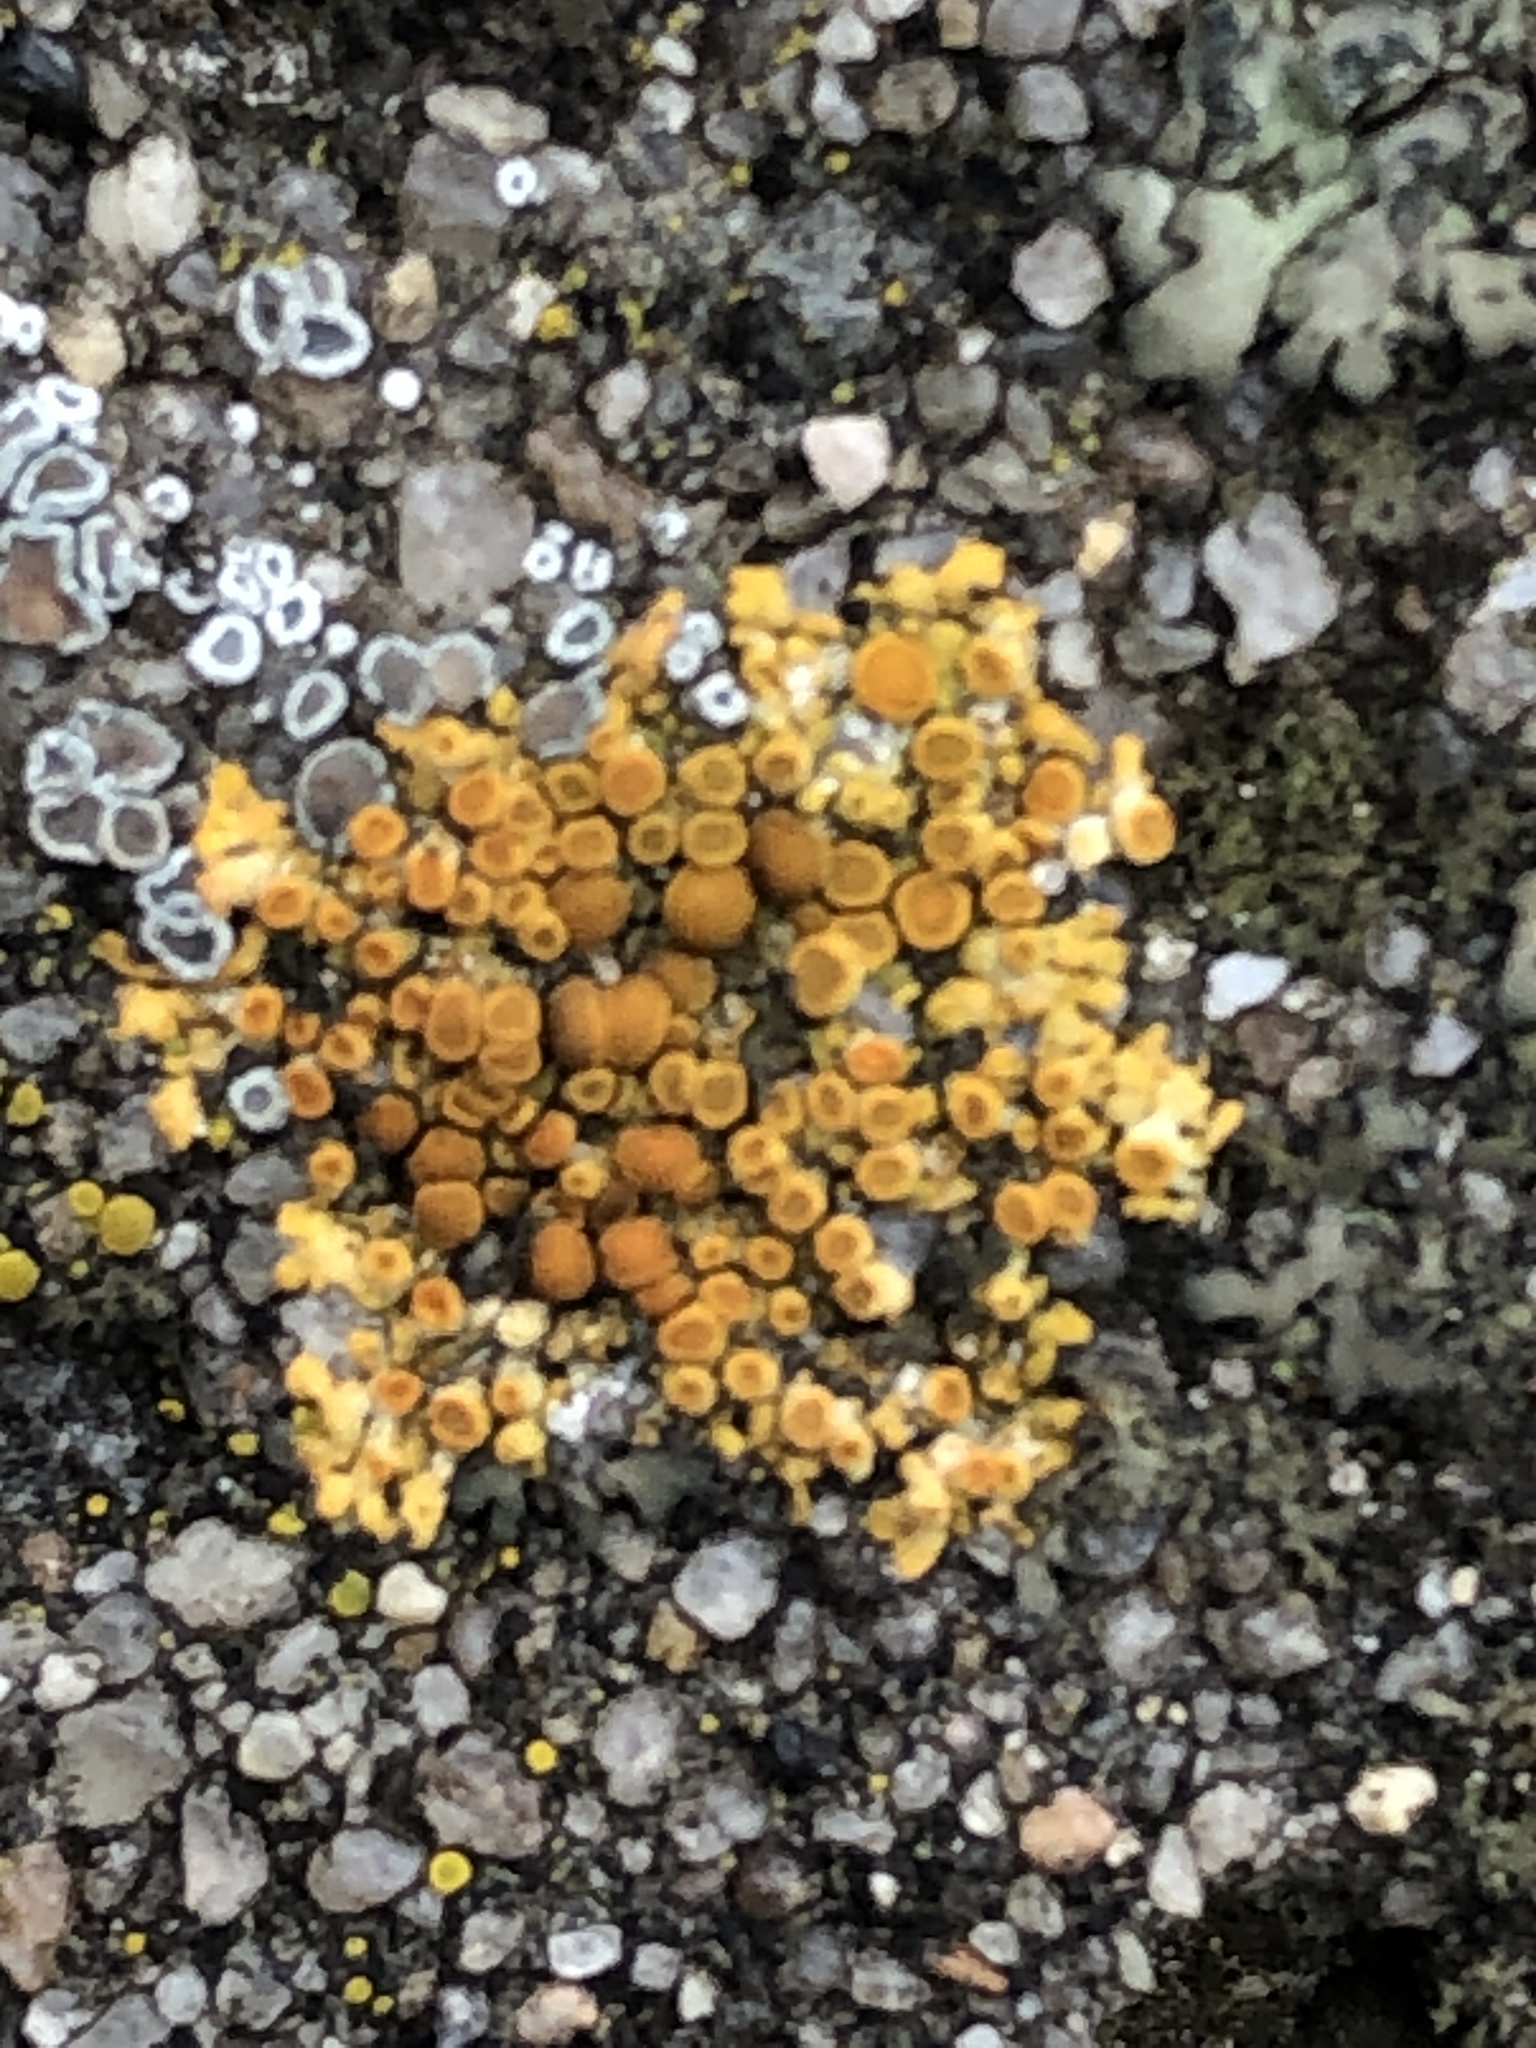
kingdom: Fungi
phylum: Ascomycota
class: Lecanoromycetes
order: Teloschistales
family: Teloschistaceae
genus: Calogaya
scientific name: Calogaya saxicola
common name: Rock jewel lichen
